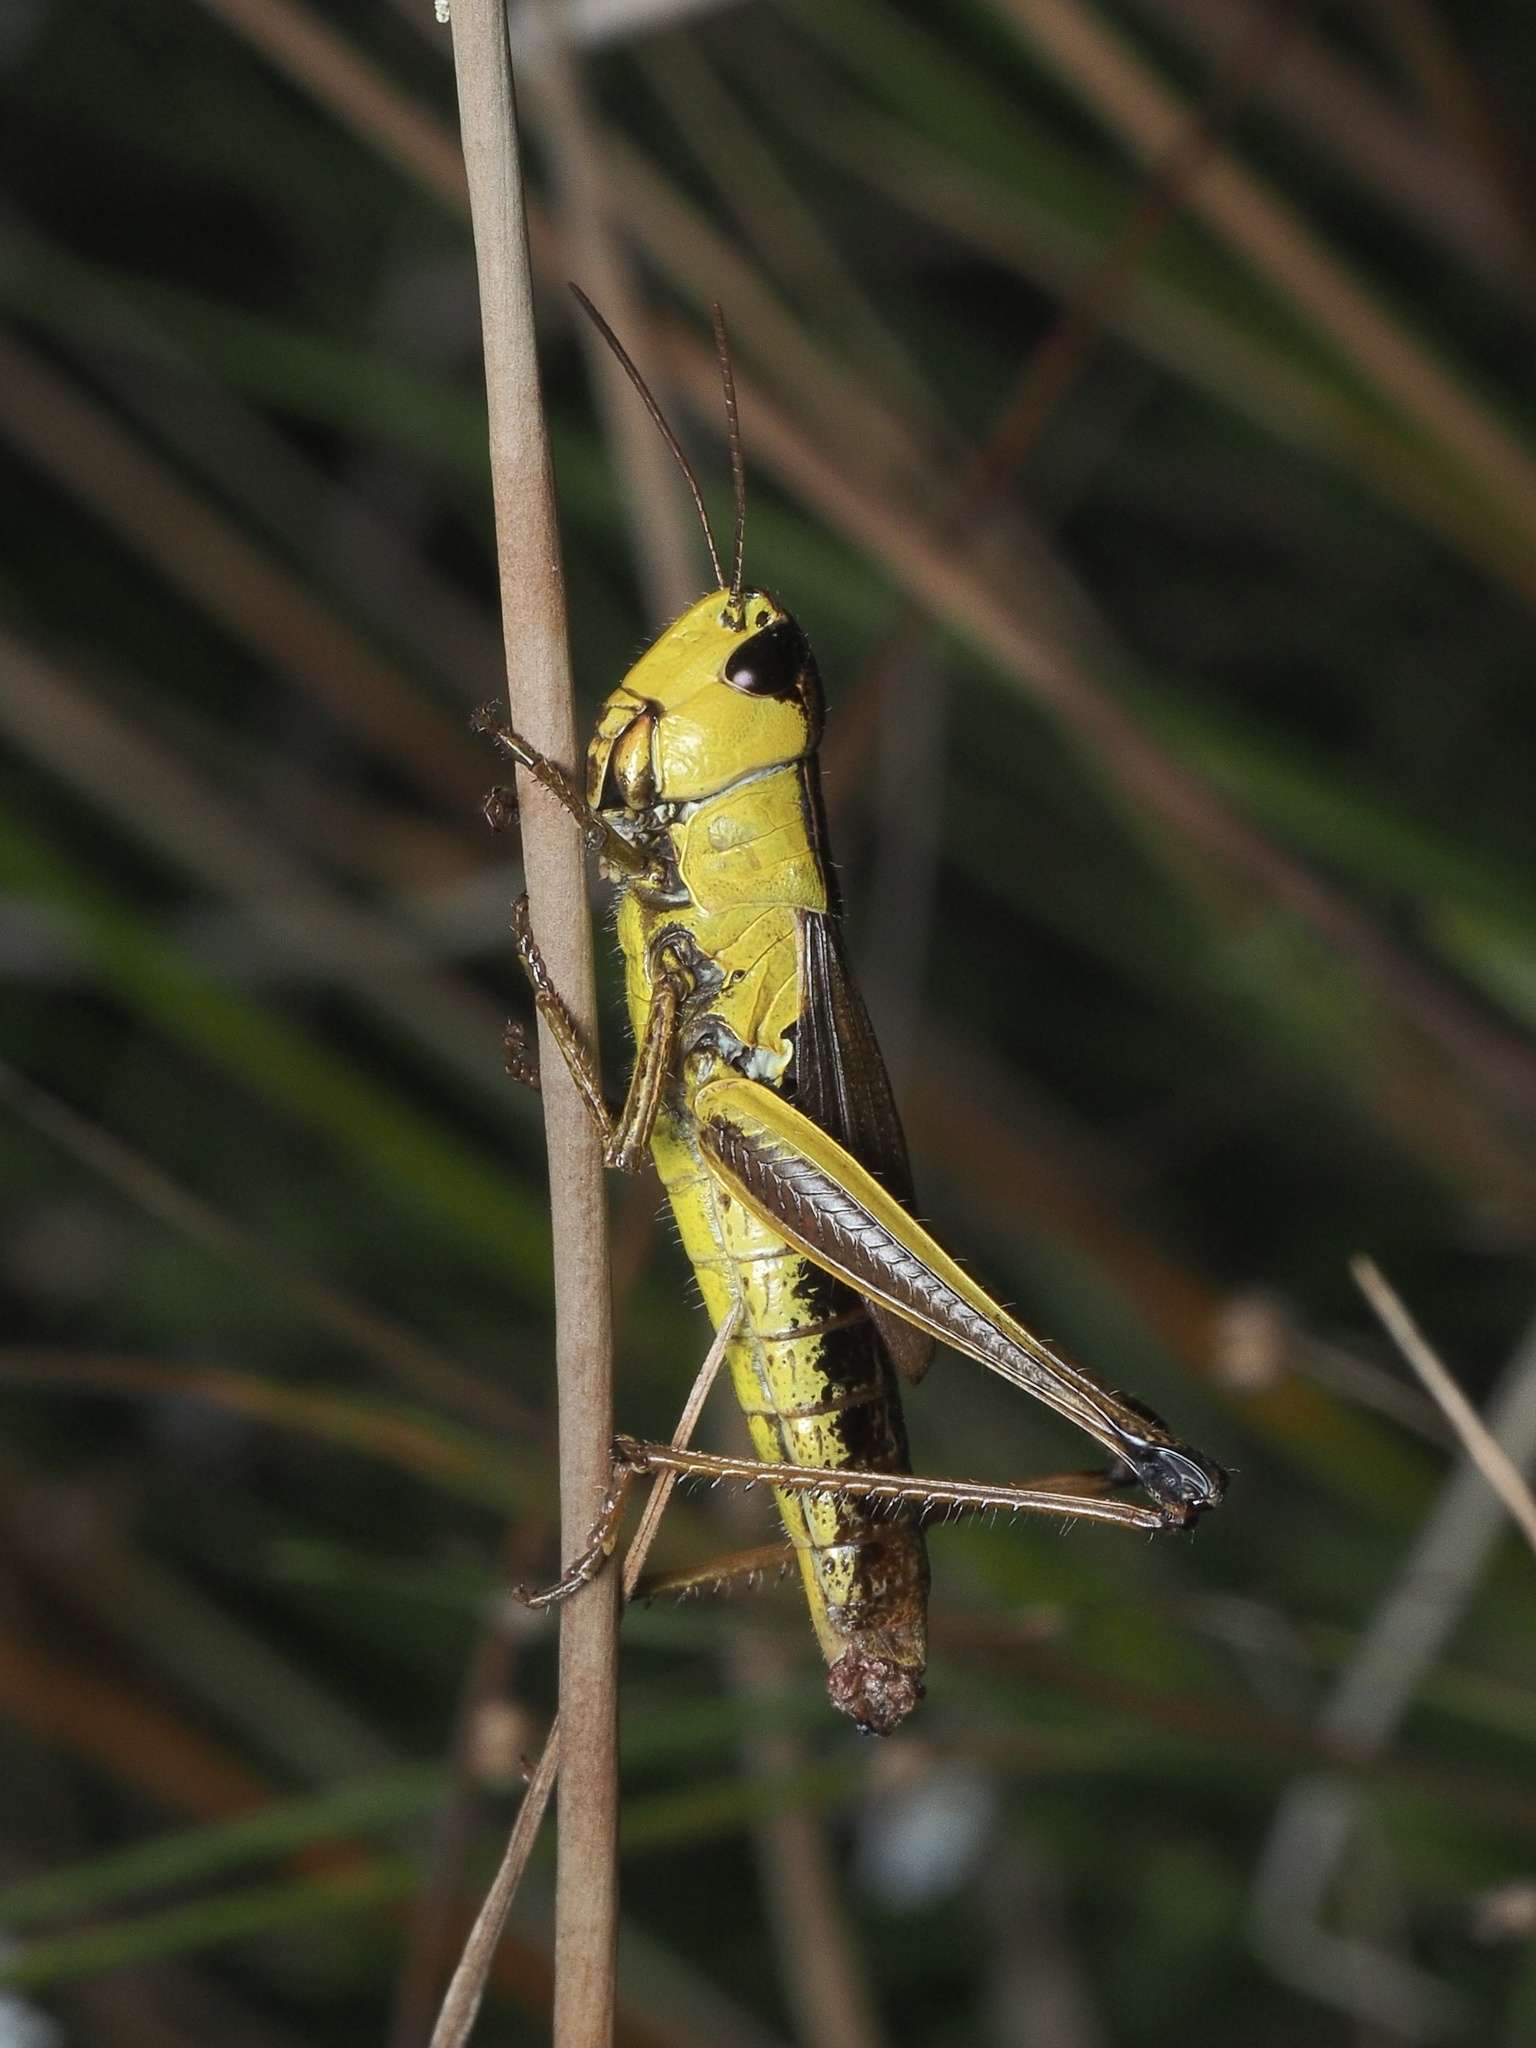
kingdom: Animalia
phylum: Arthropoda
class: Insecta
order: Orthoptera
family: Acrididae
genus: Pseudochorthippus
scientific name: Pseudochorthippus montanus
